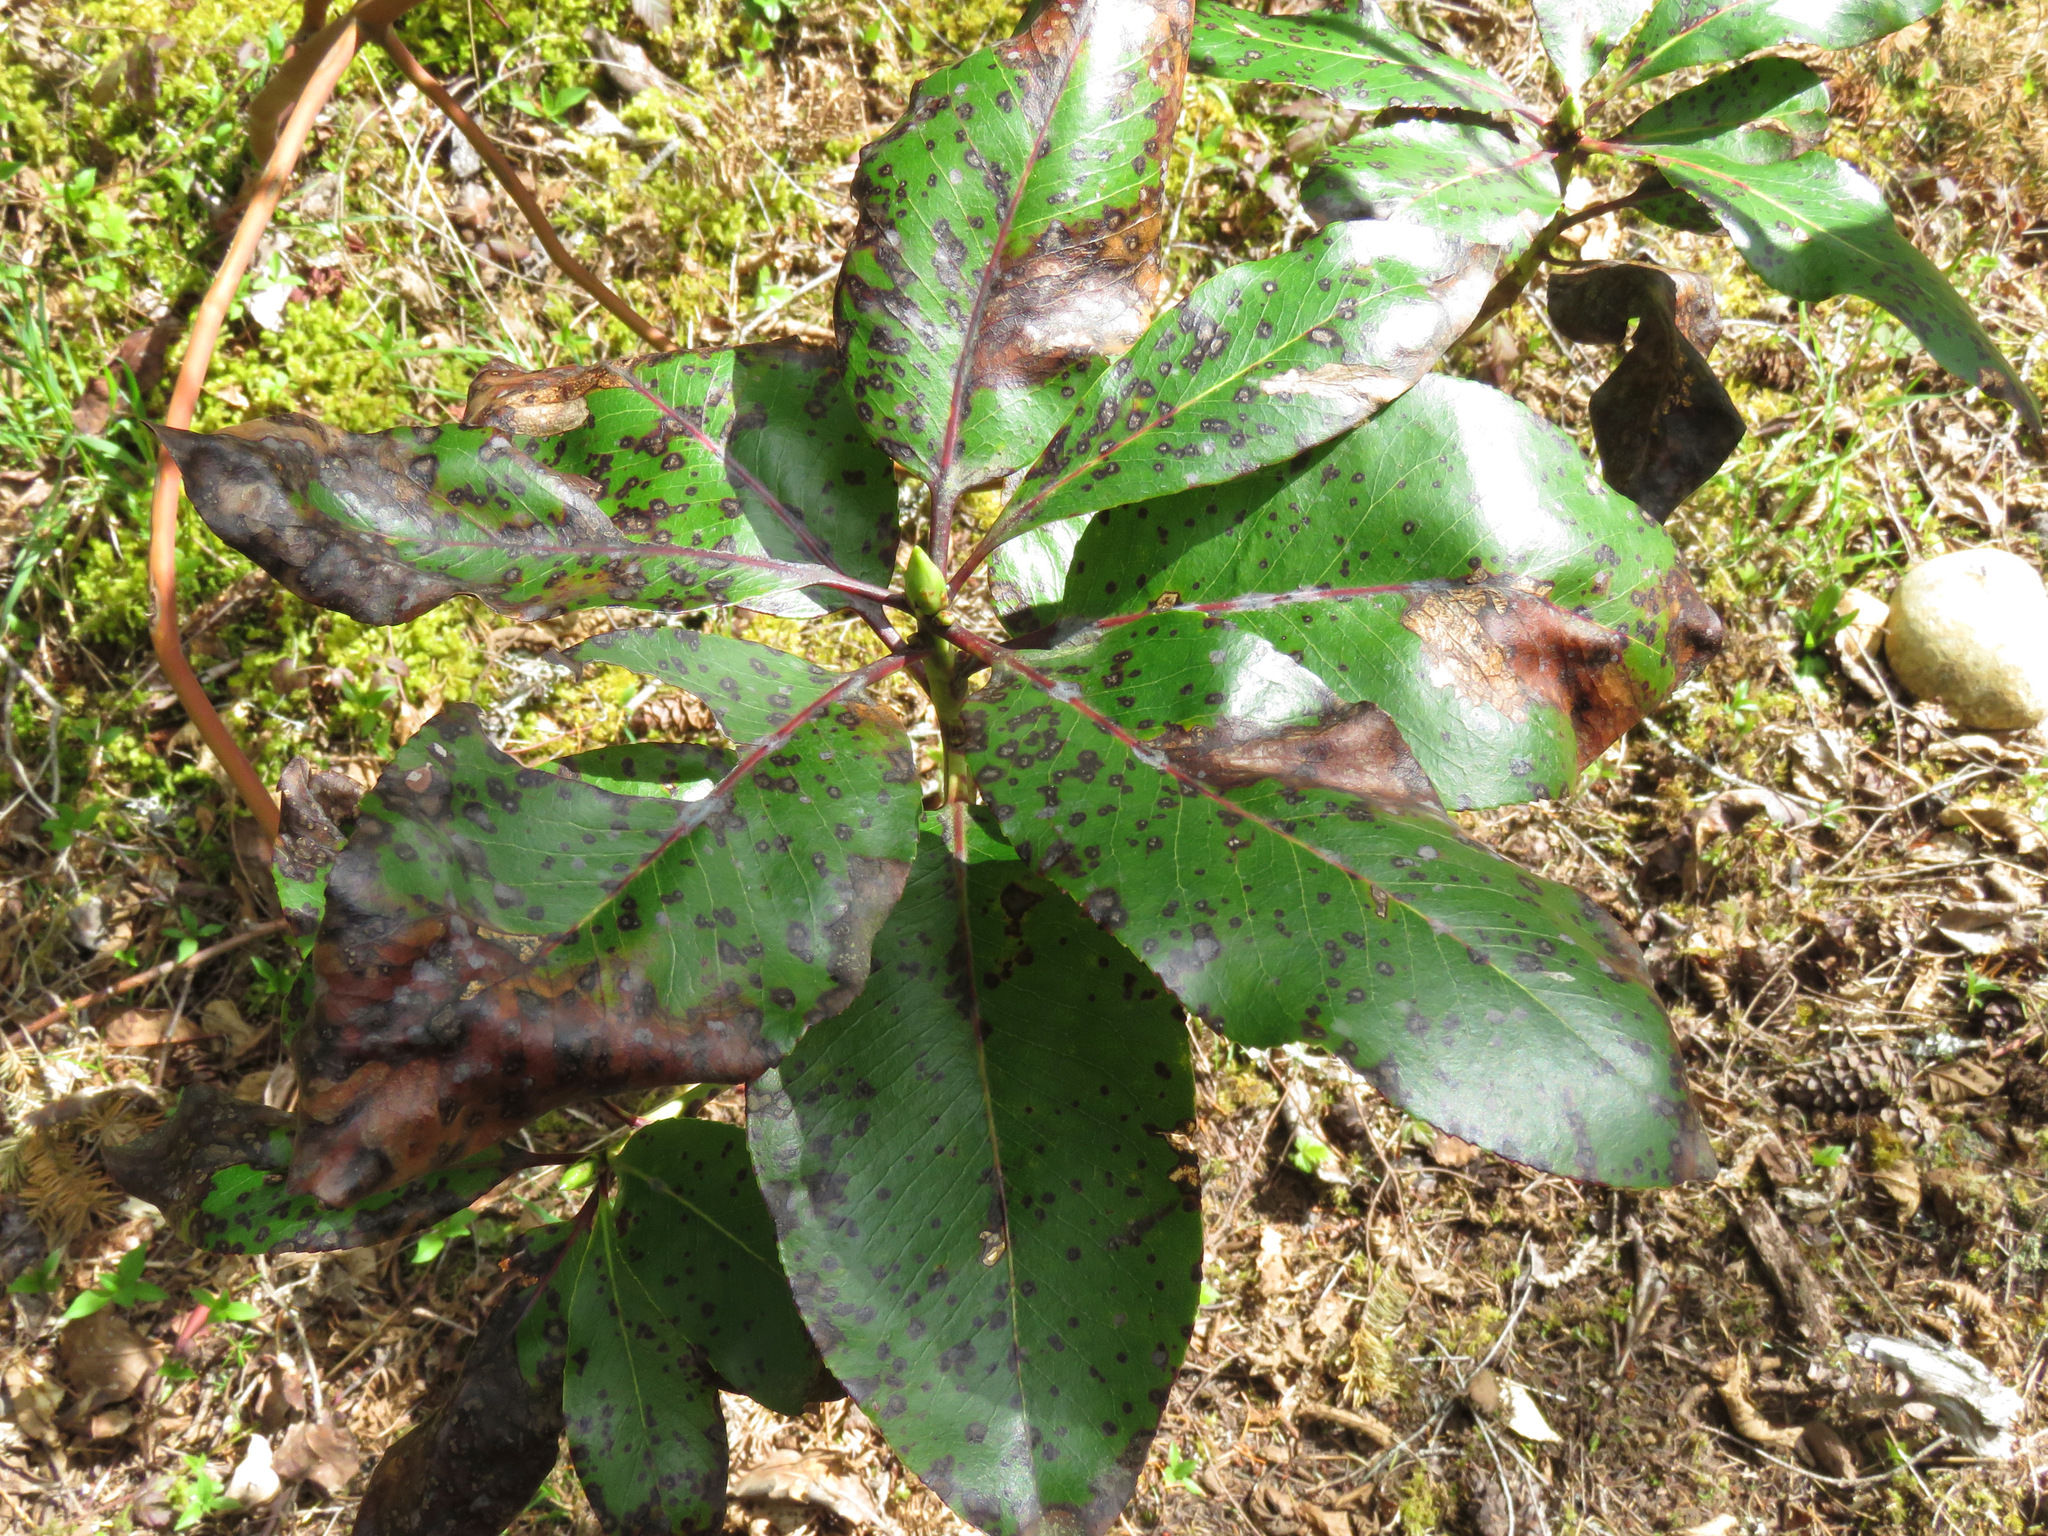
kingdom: Plantae
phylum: Tracheophyta
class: Magnoliopsida
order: Ericales
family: Ericaceae
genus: Arbutus
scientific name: Arbutus menziesii
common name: Pacific madrone
